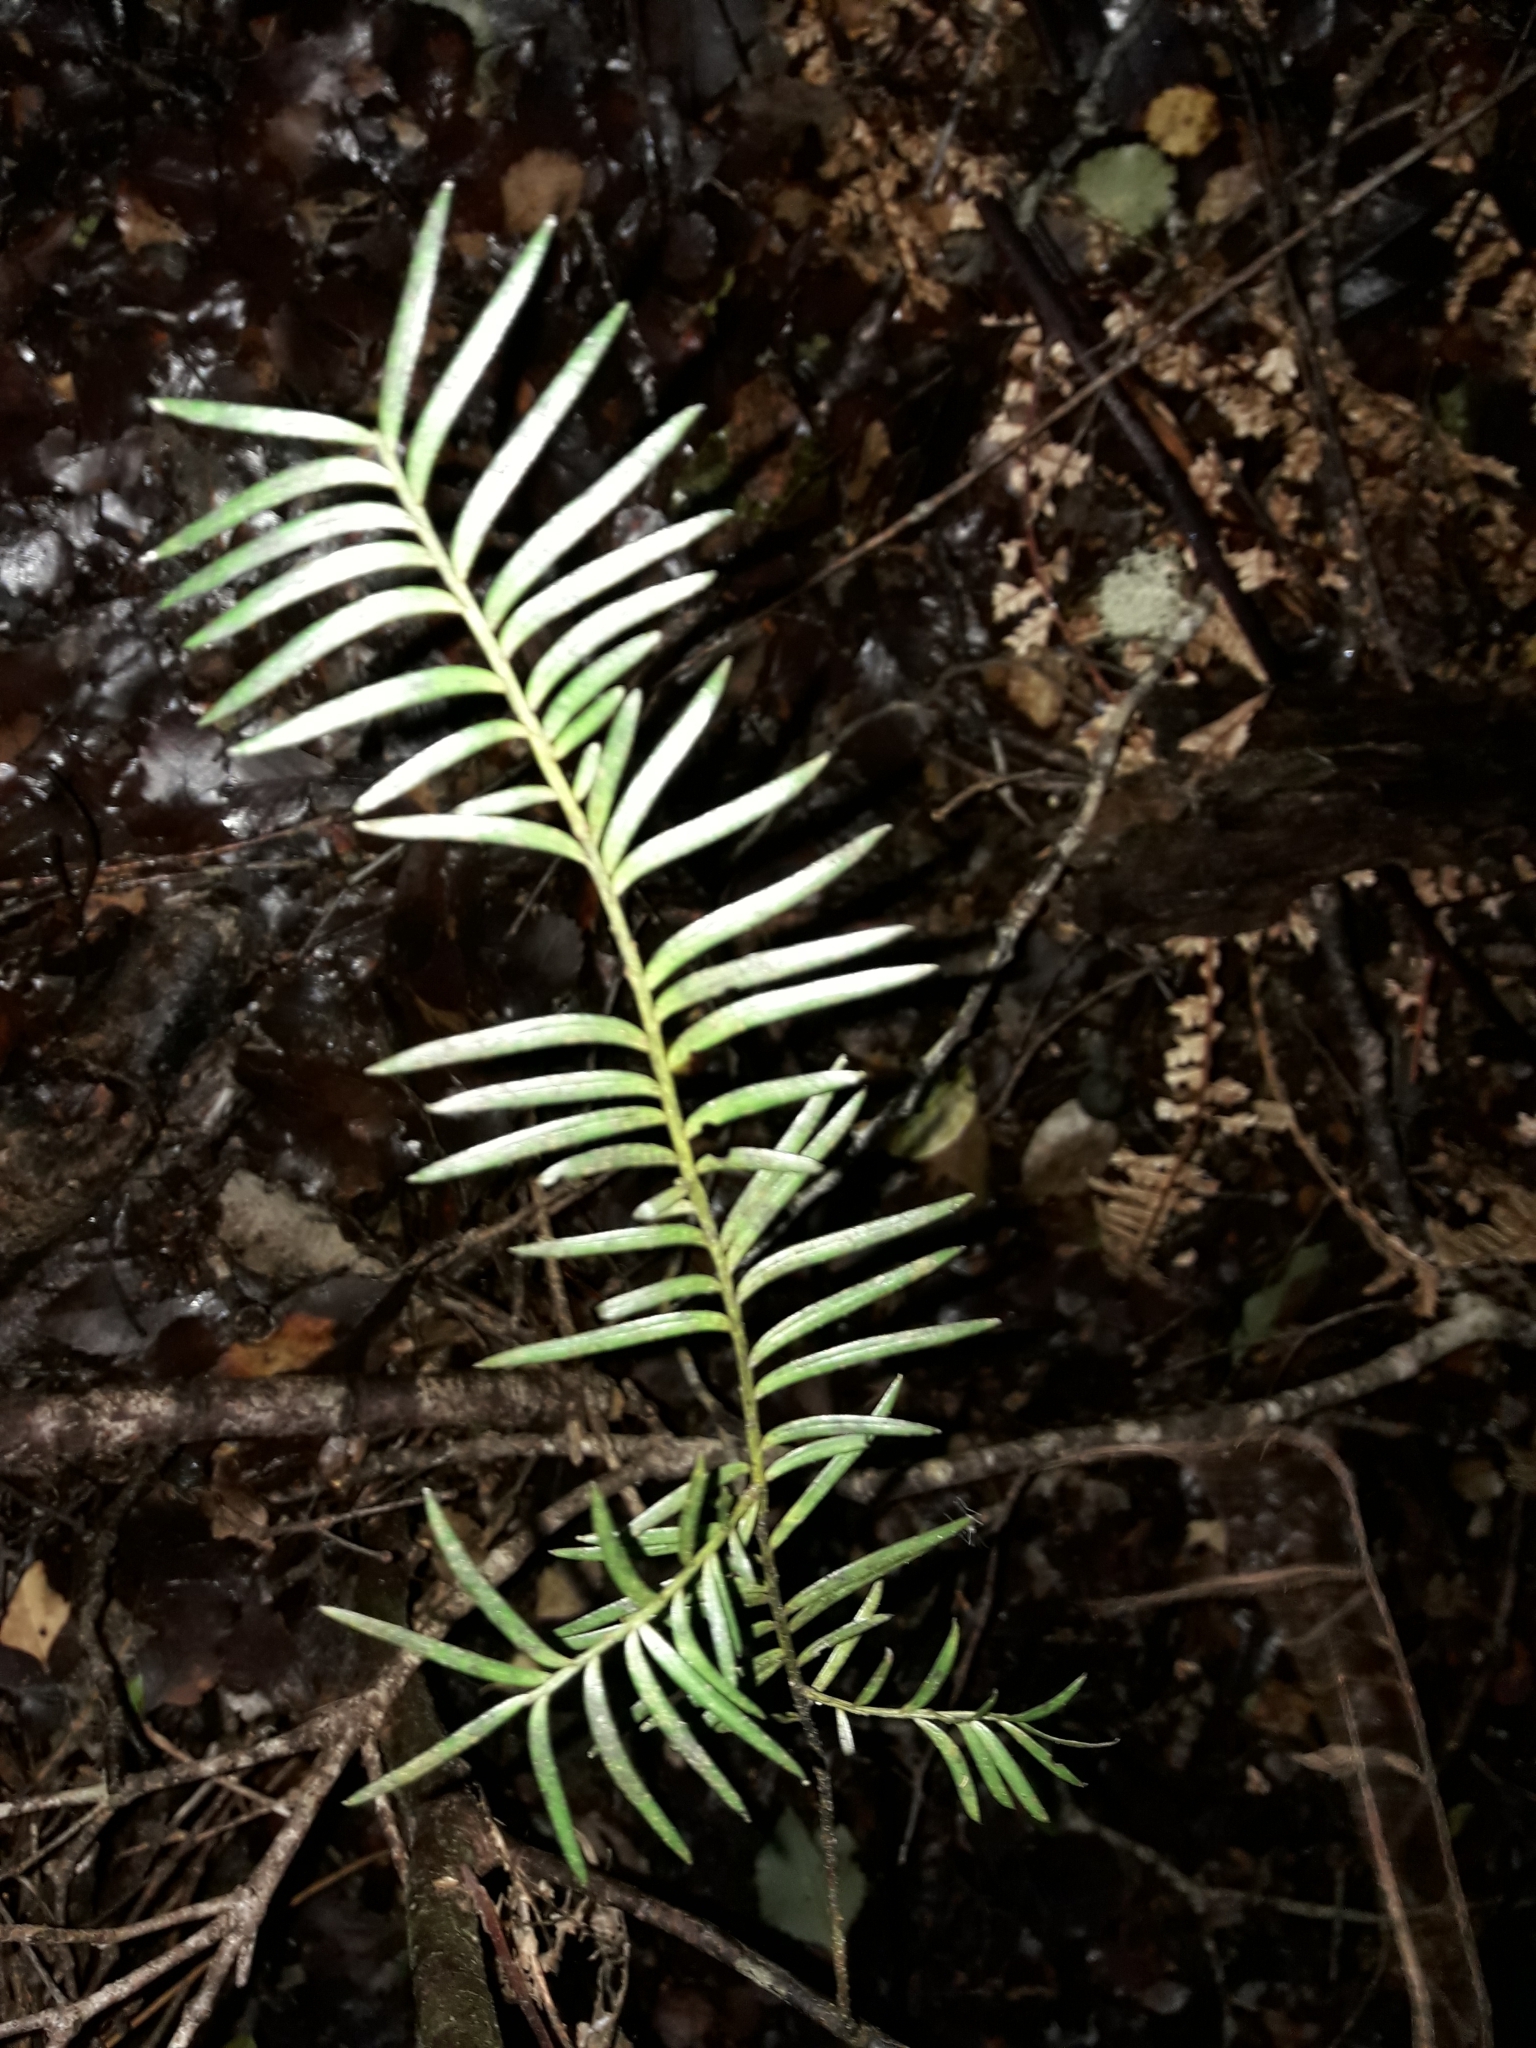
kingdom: Plantae
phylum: Tracheophyta
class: Pinopsida
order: Pinales
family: Podocarpaceae
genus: Prumnopitys
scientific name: Prumnopitys ferruginea
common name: Brown pine
